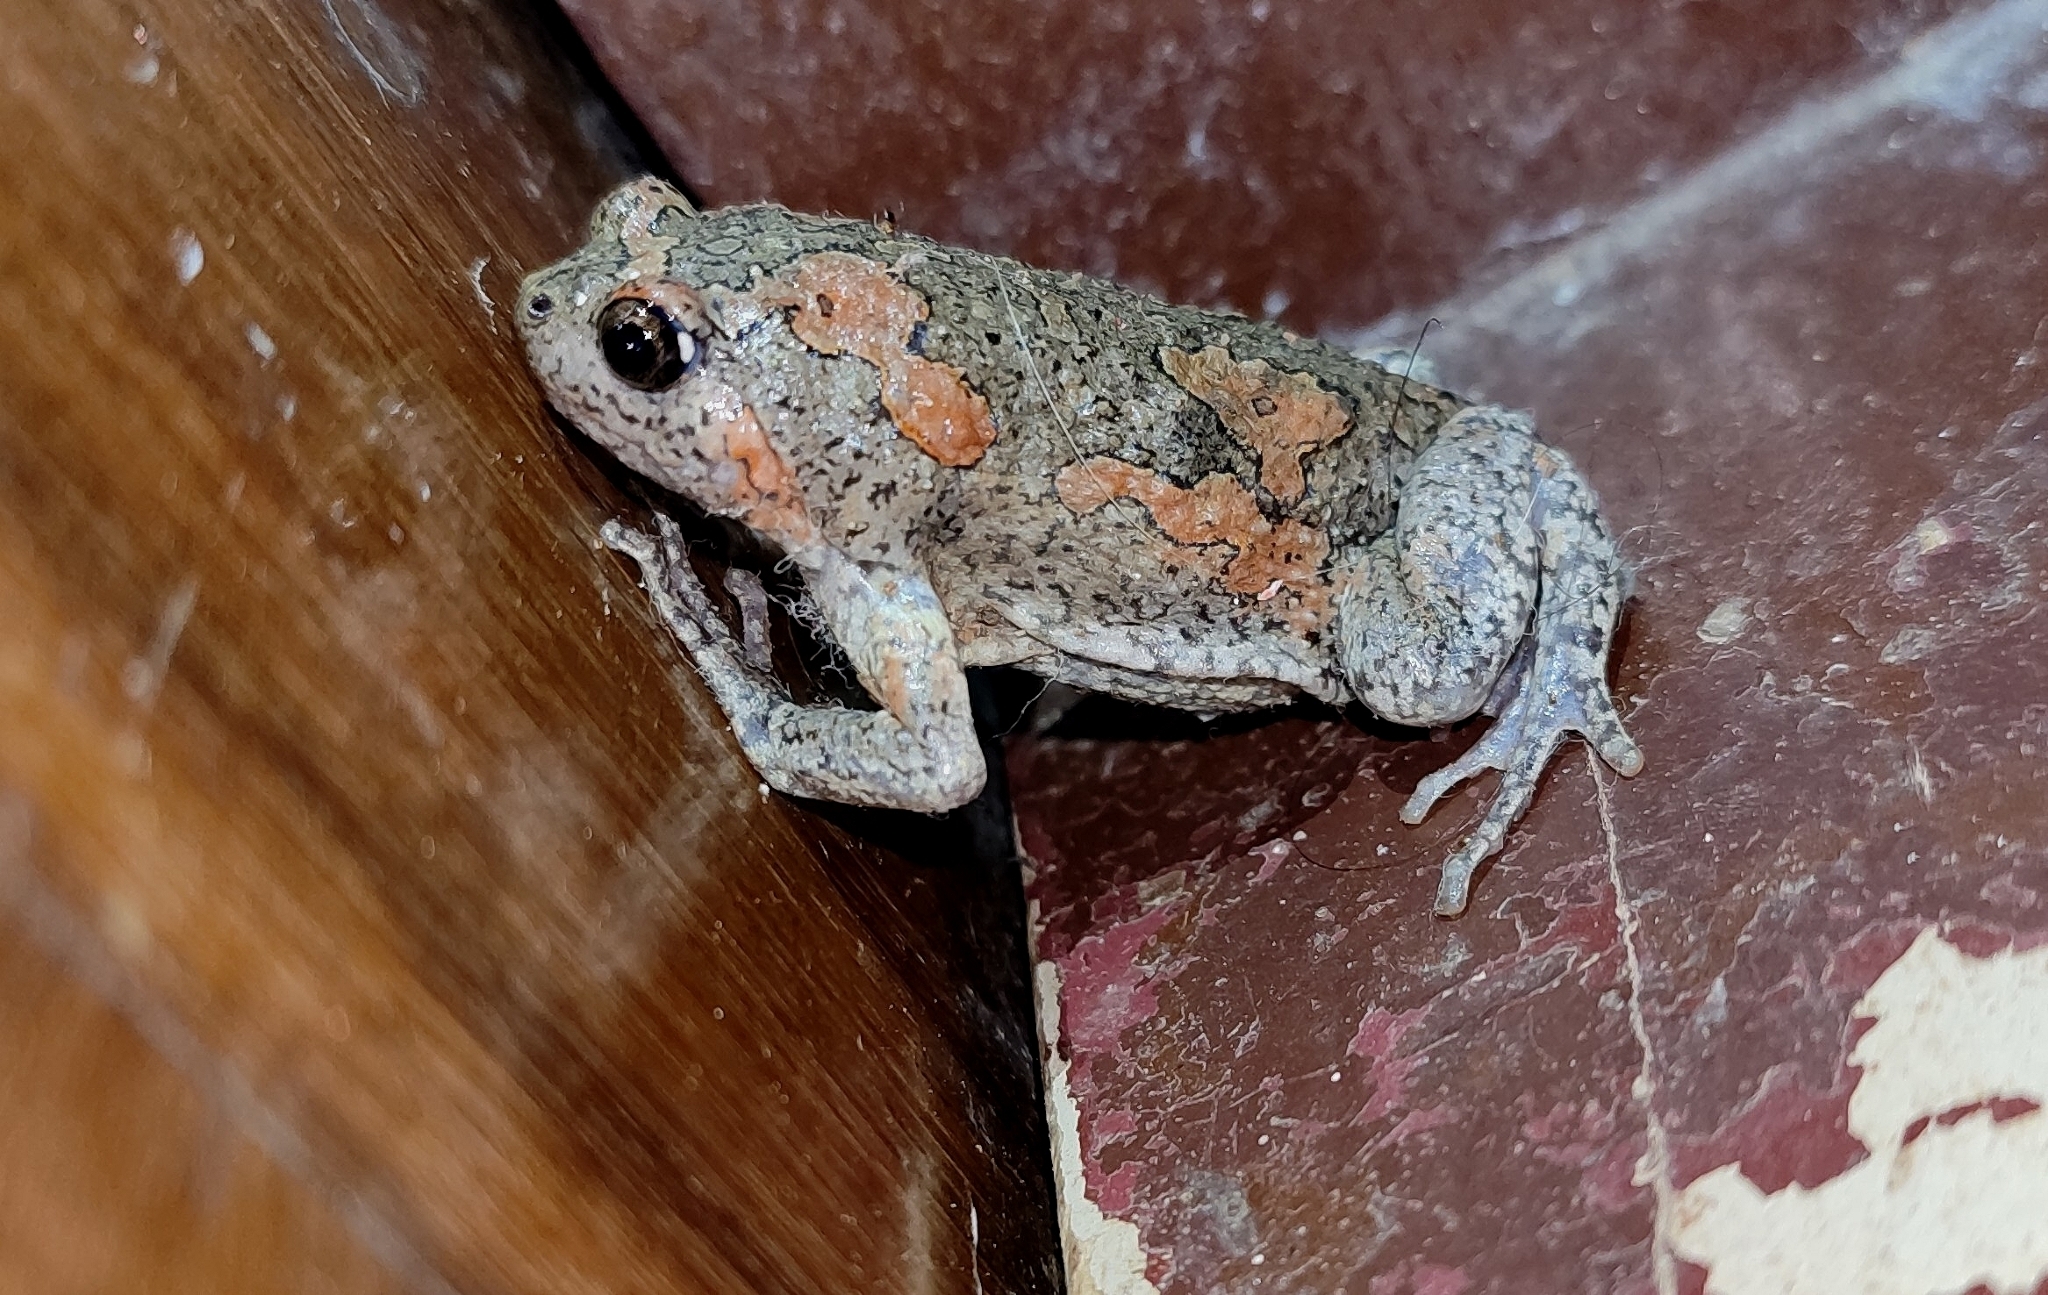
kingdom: Animalia
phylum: Chordata
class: Amphibia
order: Anura
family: Microhylidae
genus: Uperodon
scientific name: Uperodon taprobanicus
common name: Ceylon kaloula
